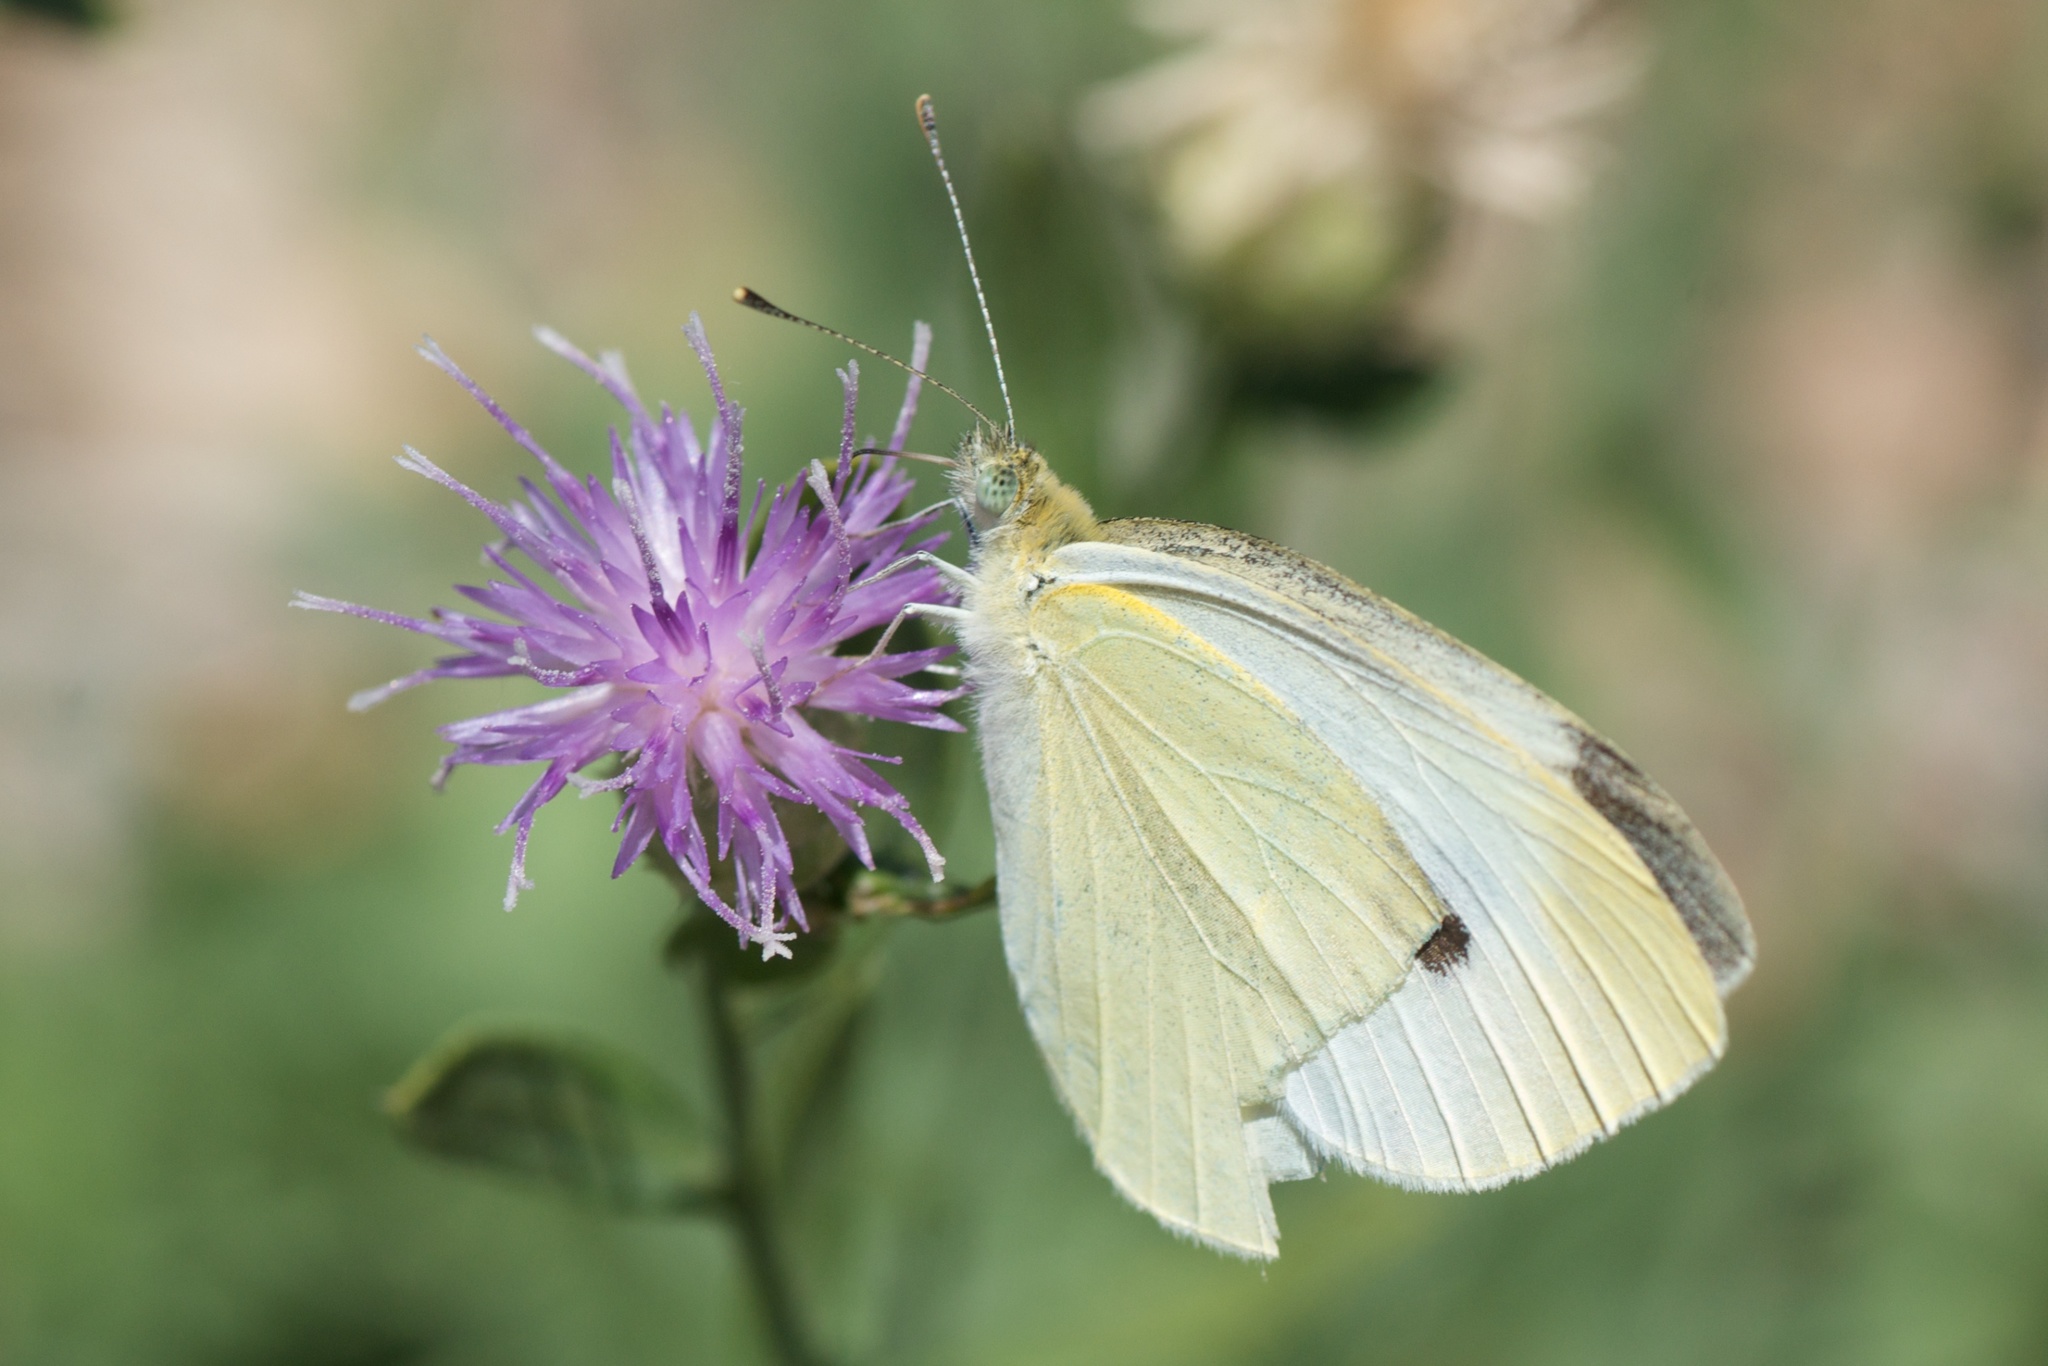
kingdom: Animalia
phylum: Arthropoda
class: Insecta
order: Lepidoptera
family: Pieridae
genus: Pieris
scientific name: Pieris rapae
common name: Small white
